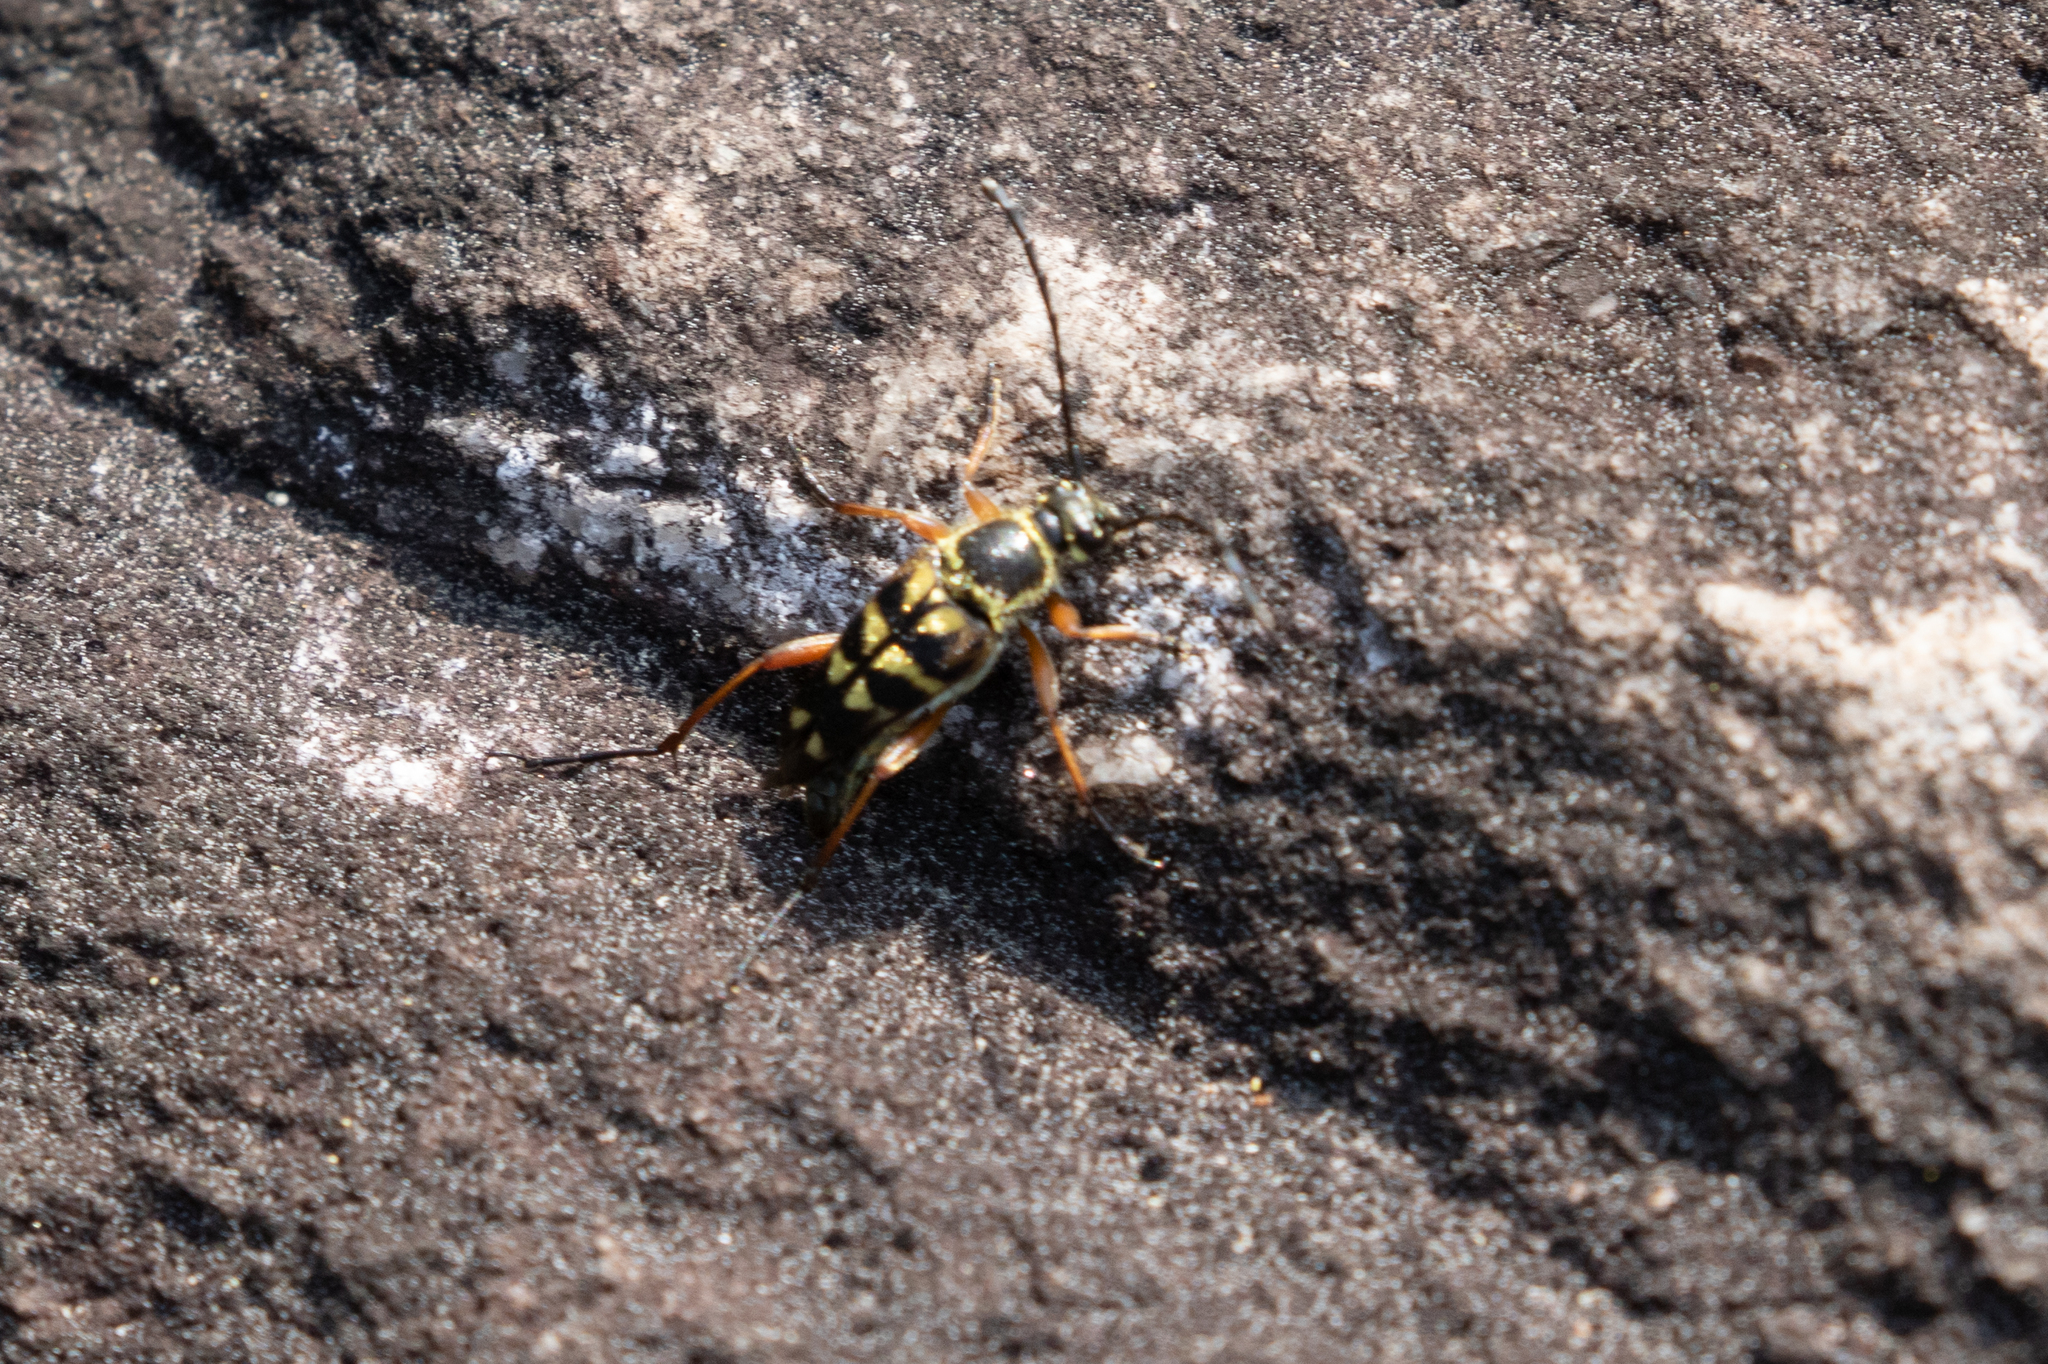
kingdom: Animalia
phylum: Arthropoda
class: Insecta
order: Coleoptera
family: Cerambycidae
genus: Typocerus
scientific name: Typocerus zebra
